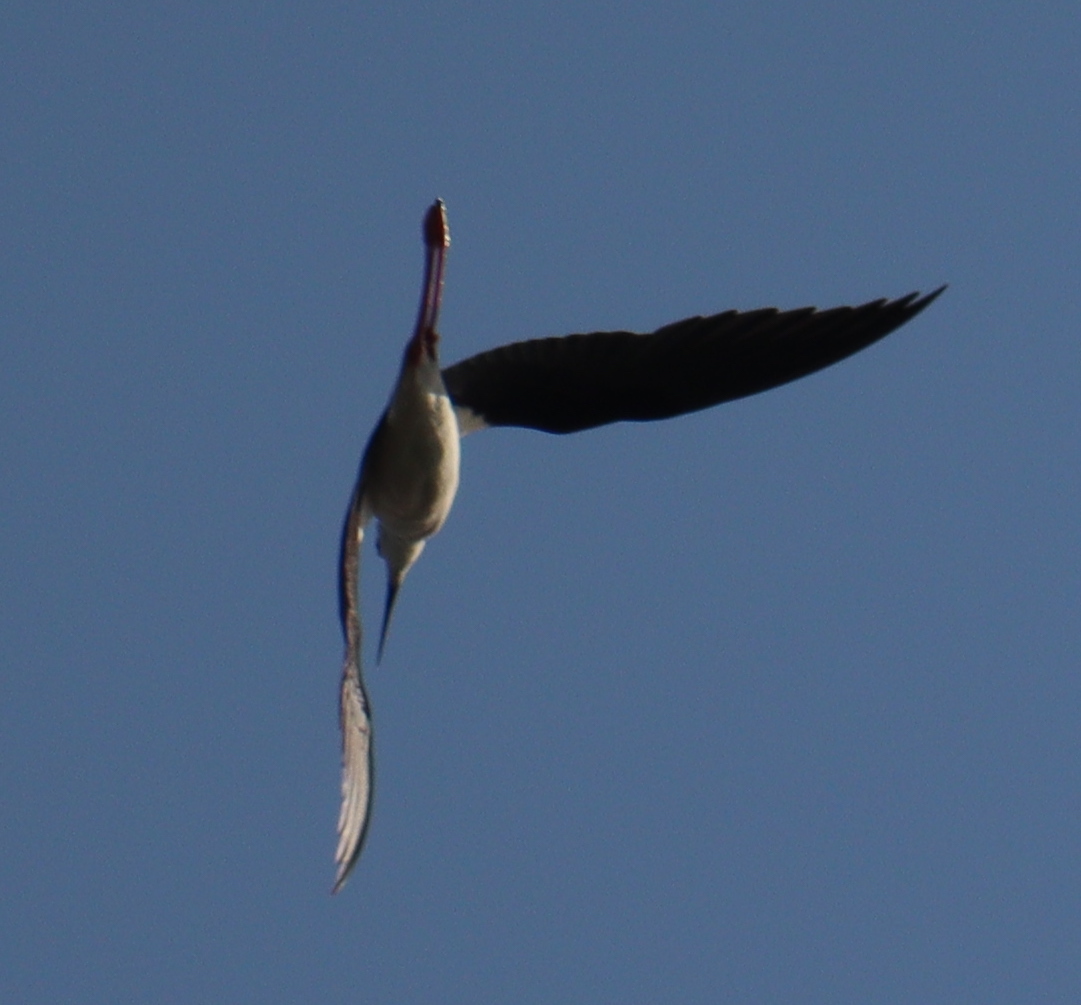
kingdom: Animalia
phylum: Chordata
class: Aves
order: Charadriiformes
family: Recurvirostridae
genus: Himantopus
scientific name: Himantopus himantopus
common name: Black-winged stilt
